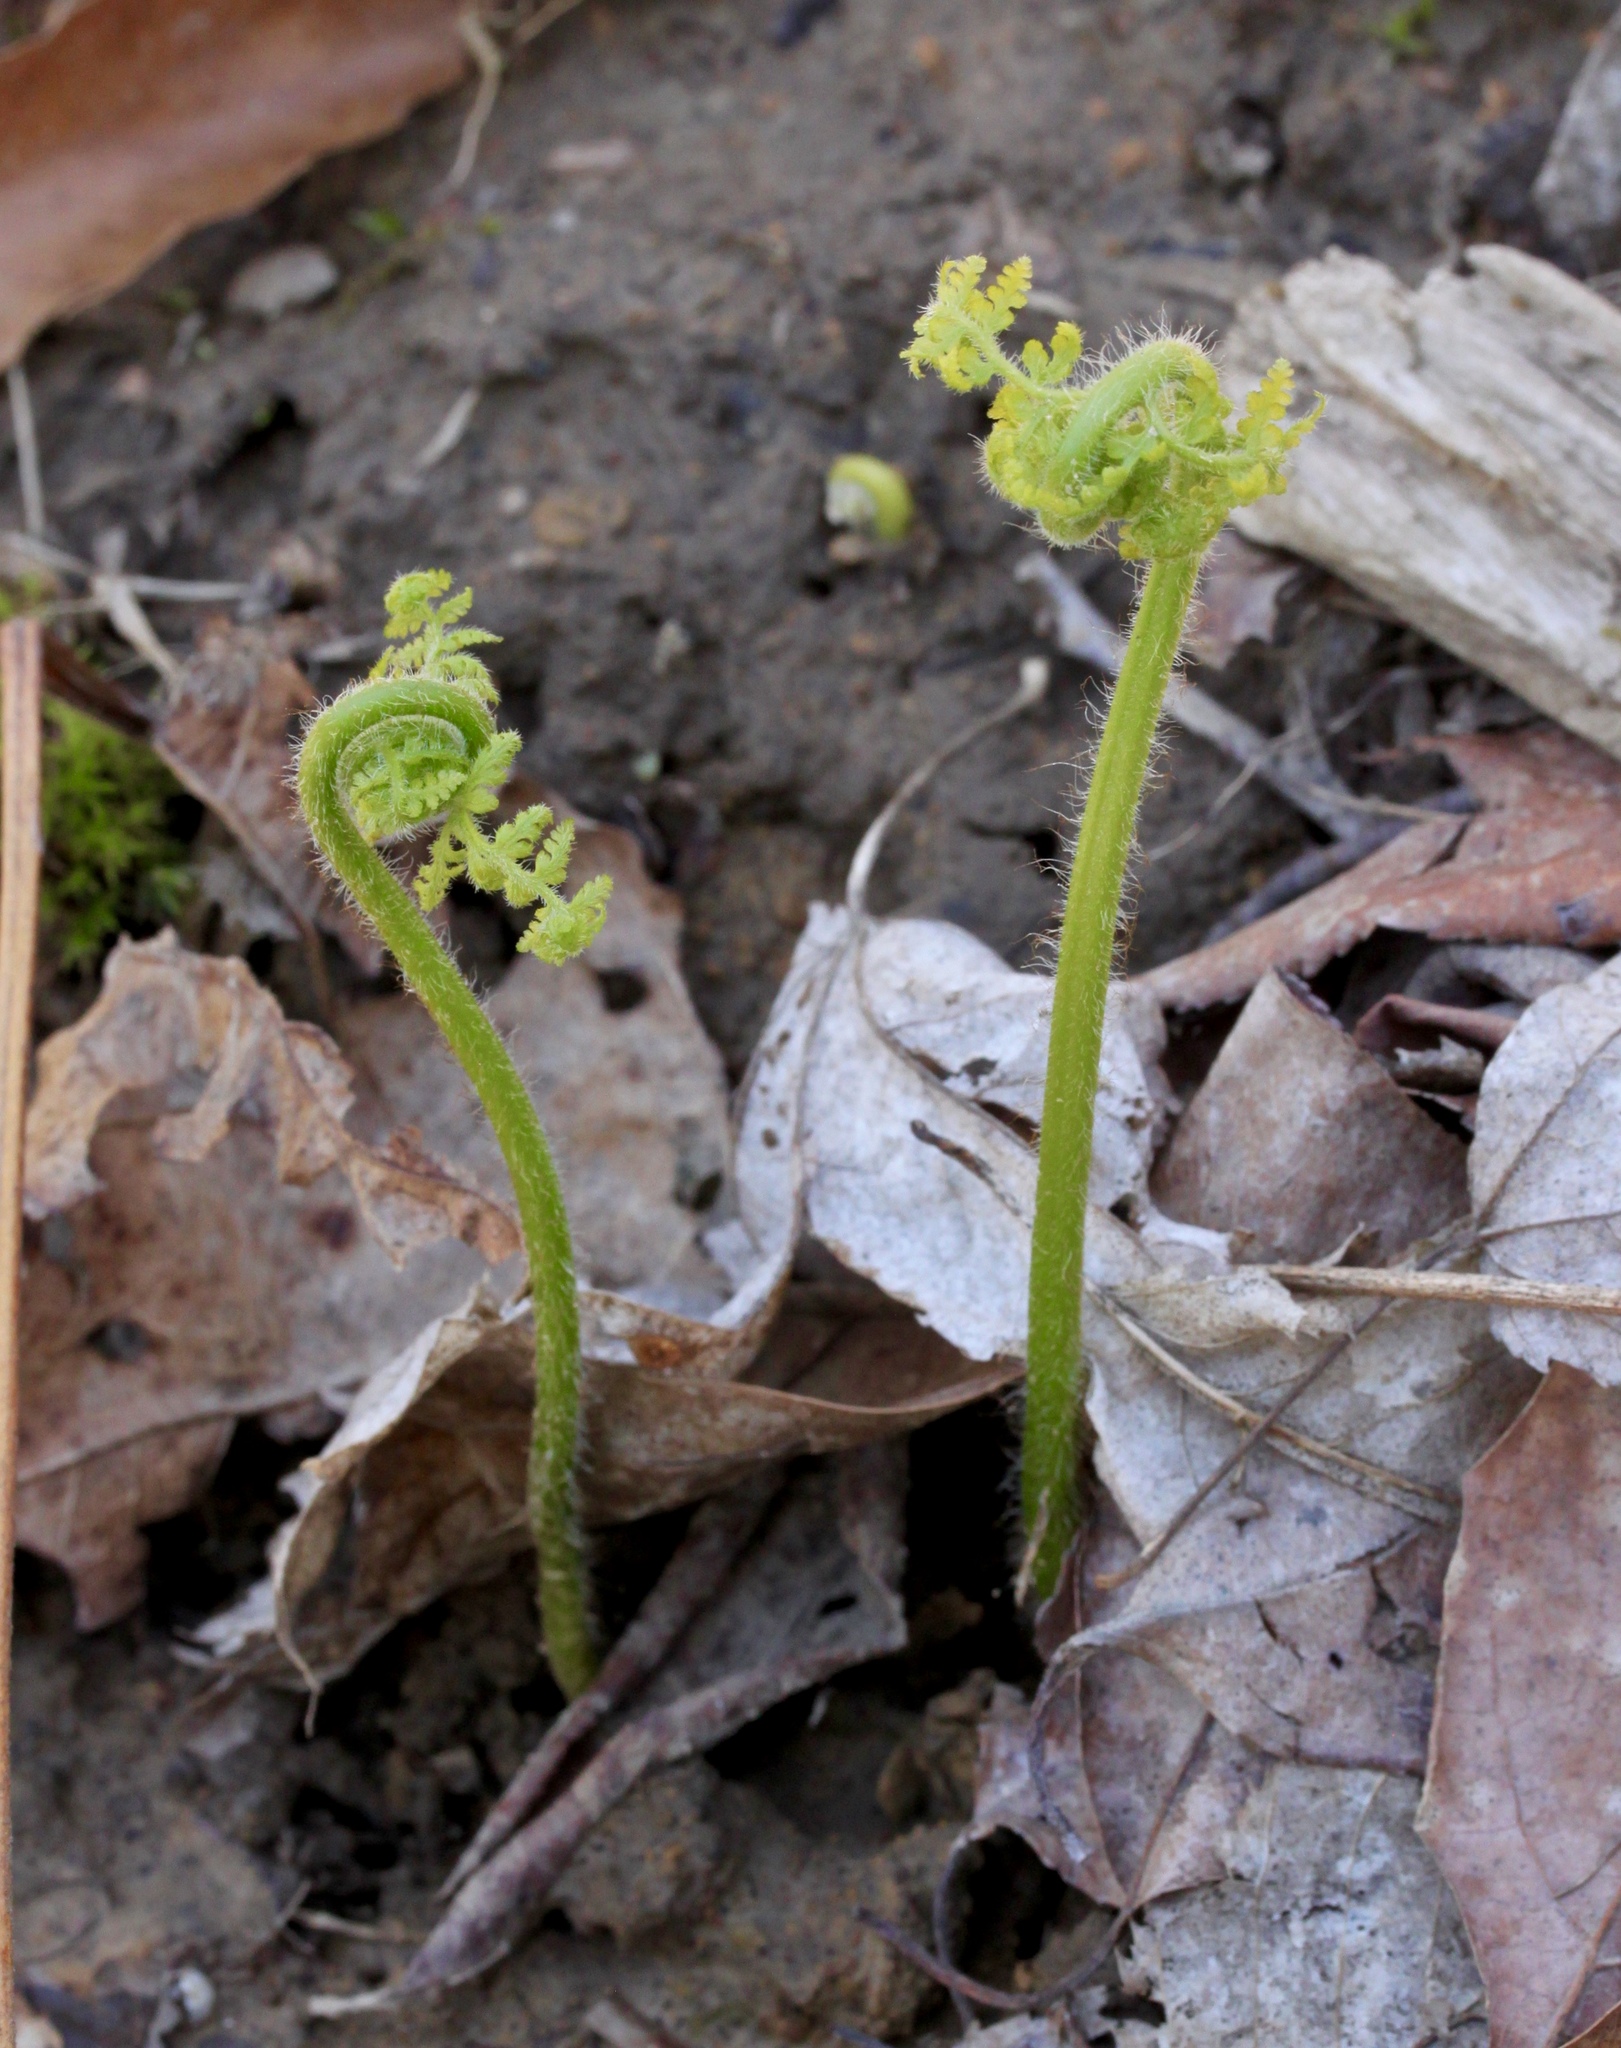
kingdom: Plantae
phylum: Tracheophyta
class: Polypodiopsida
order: Polypodiales
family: Dennstaedtiaceae
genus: Sitobolium
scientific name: Sitobolium punctilobum
